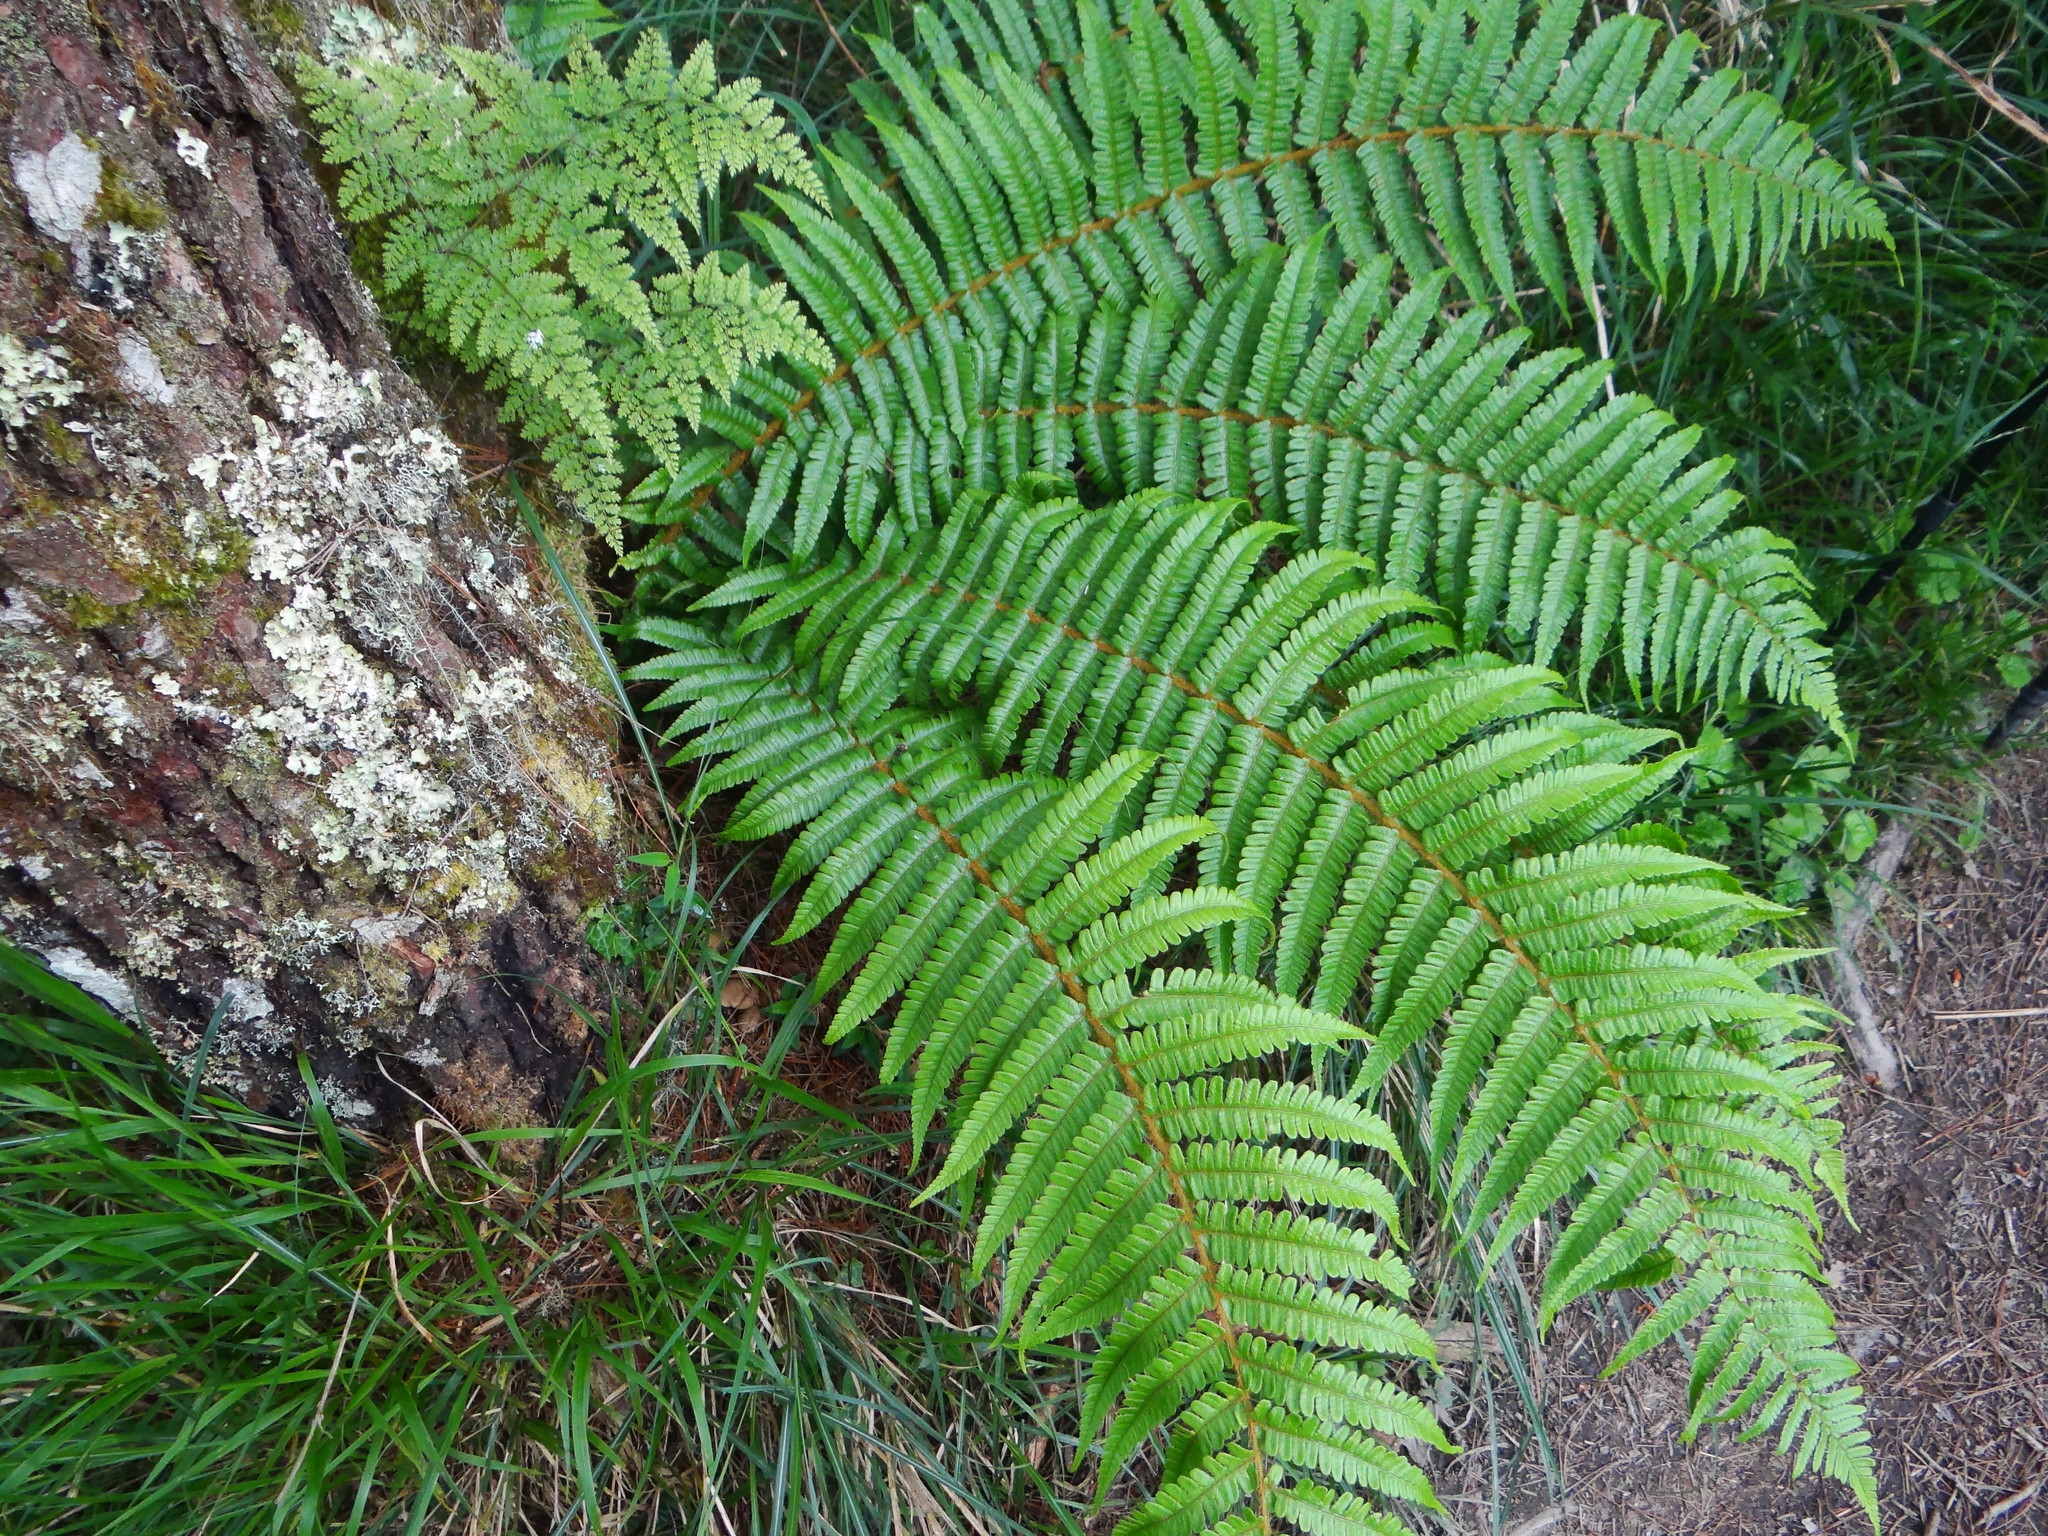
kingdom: Plantae
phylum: Tracheophyta
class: Polypodiopsida
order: Polypodiales
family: Dryopteridaceae
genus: Dryopteris
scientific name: Dryopteris wallichiana
